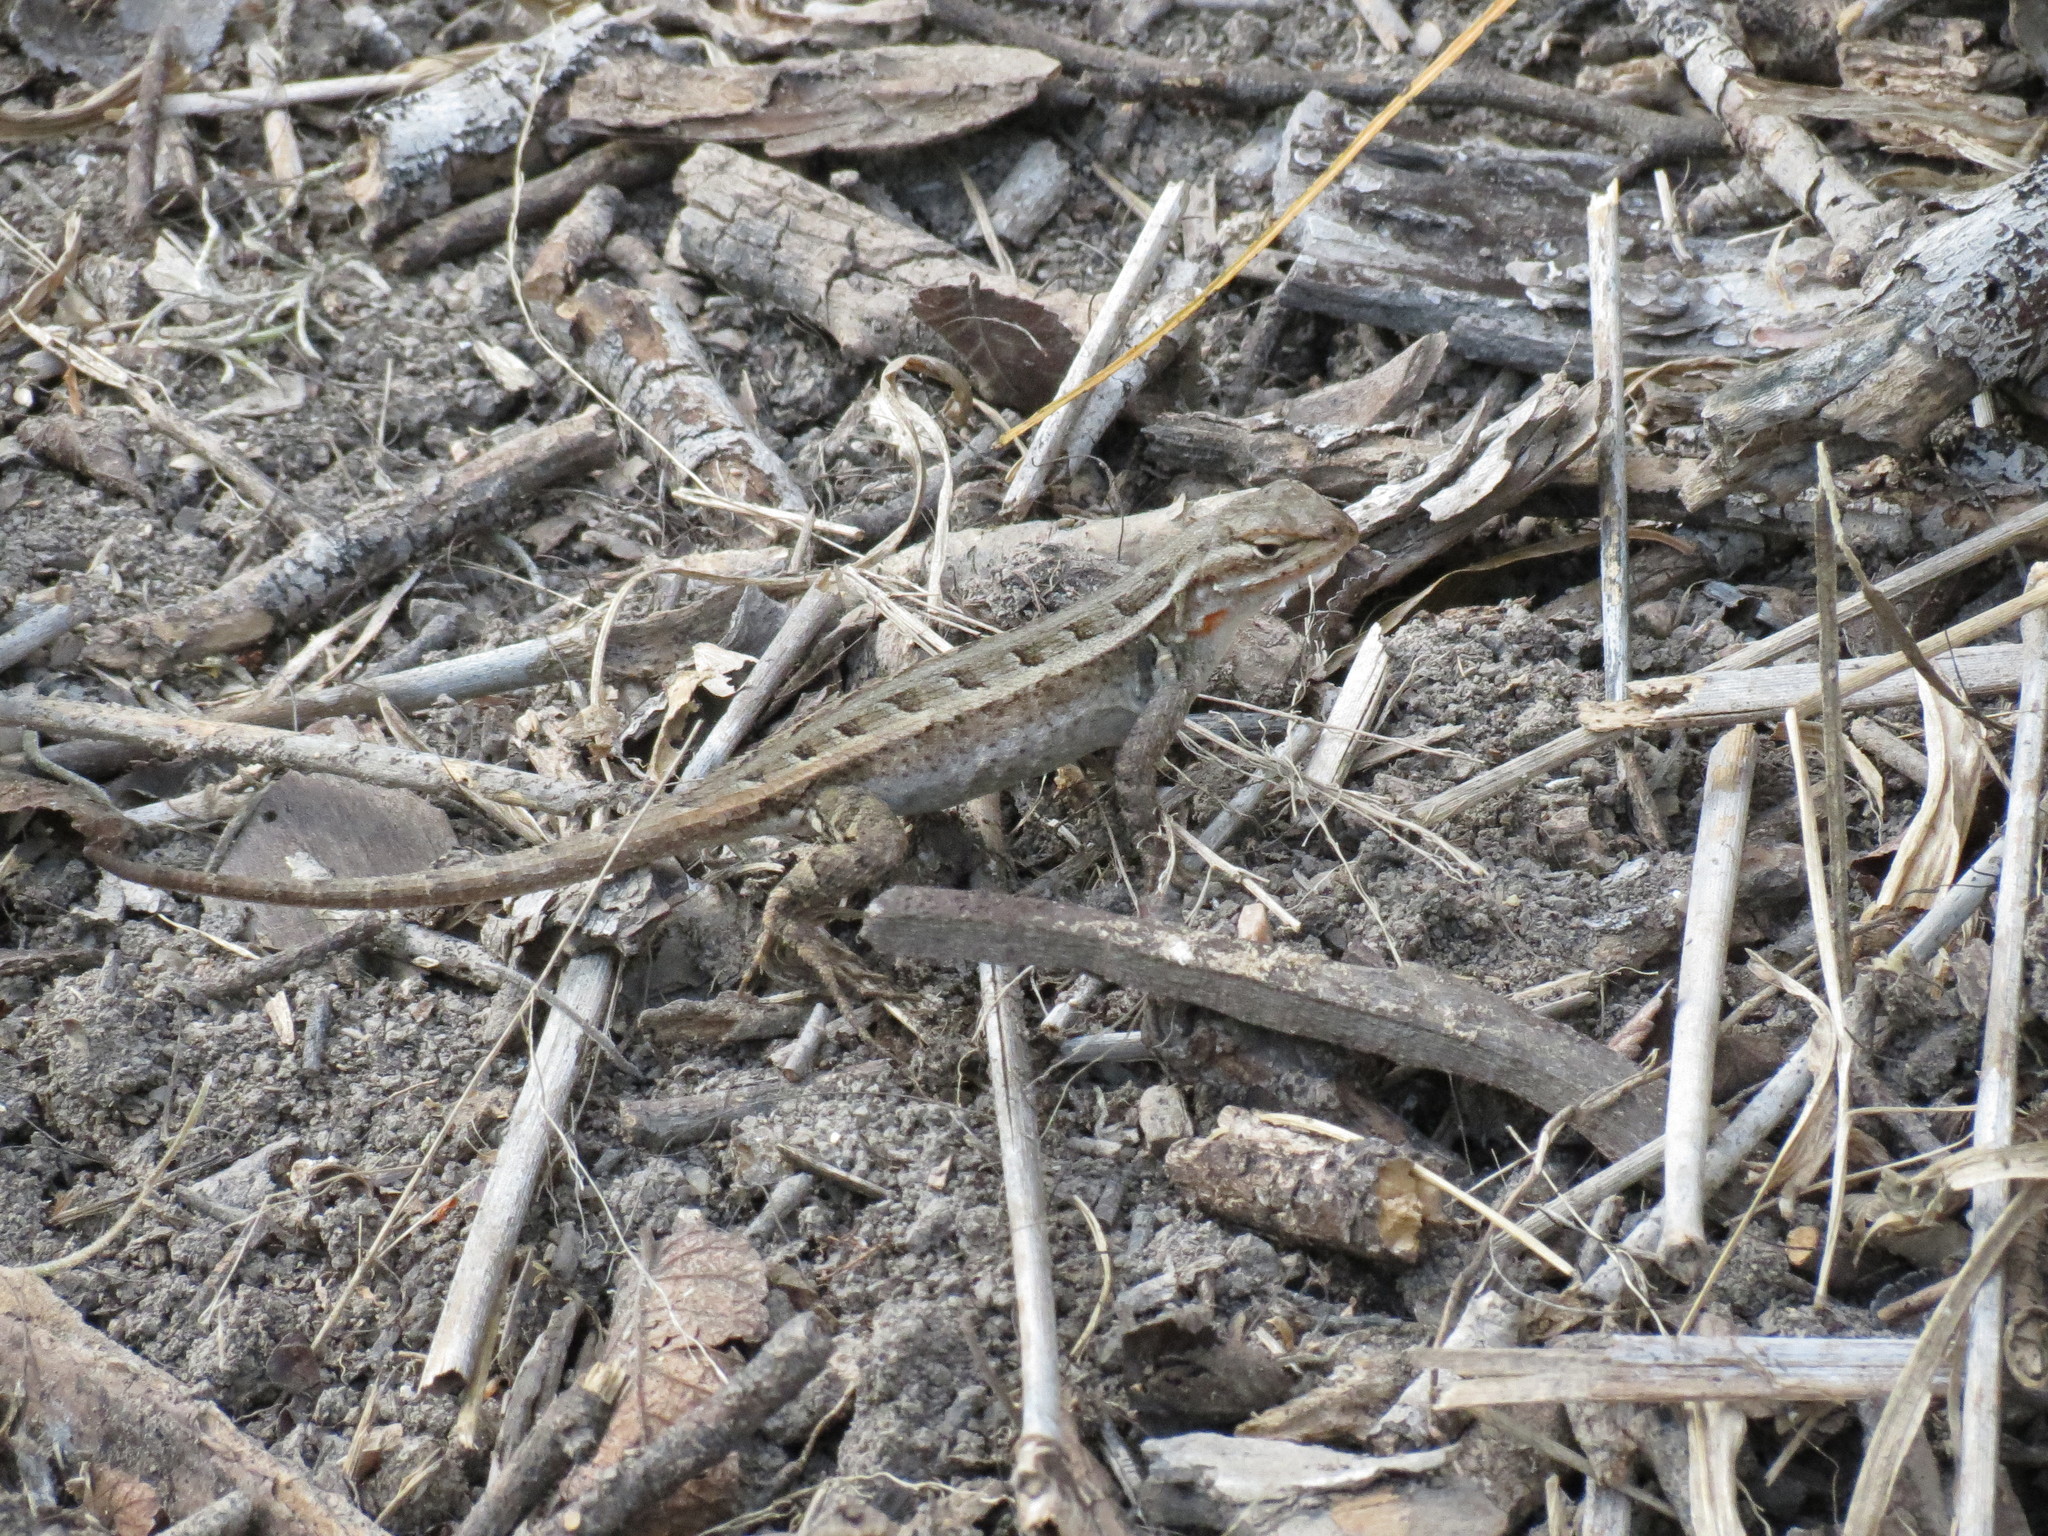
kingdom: Animalia
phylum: Chordata
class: Squamata
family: Phrynosomatidae
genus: Sceloporus
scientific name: Sceloporus variabilis
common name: Rosebelly lizard
